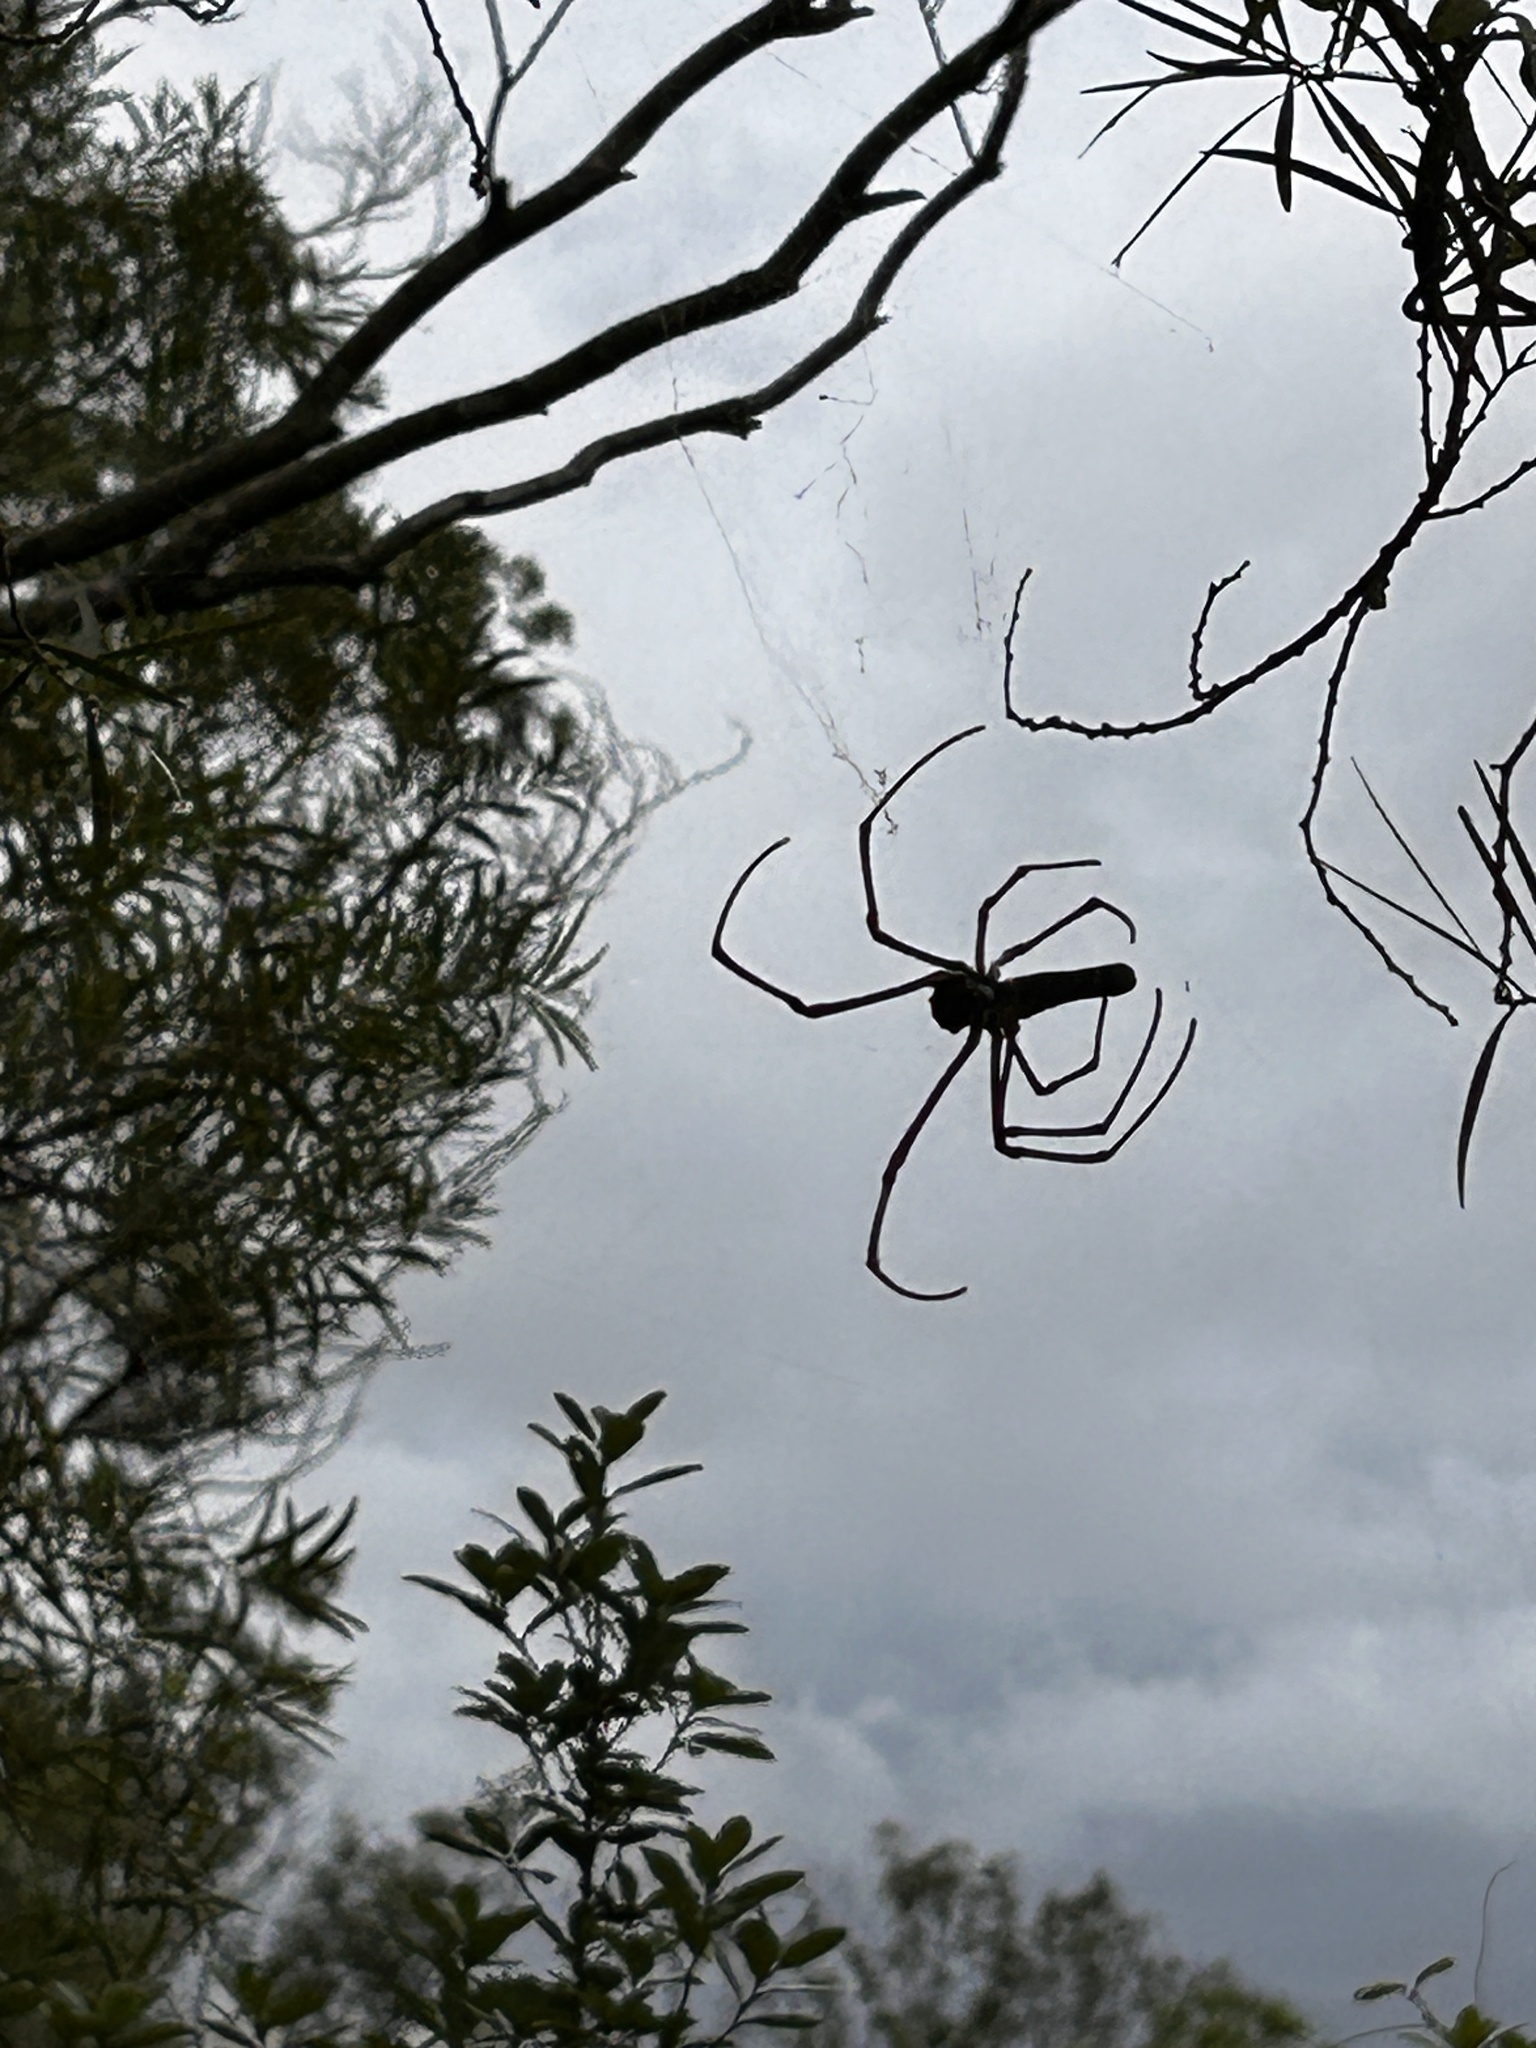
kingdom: Animalia
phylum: Arthropoda
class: Arachnida
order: Araneae
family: Araneidae
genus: Nephila
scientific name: Nephila pilipes
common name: Giant golden orb weaver
